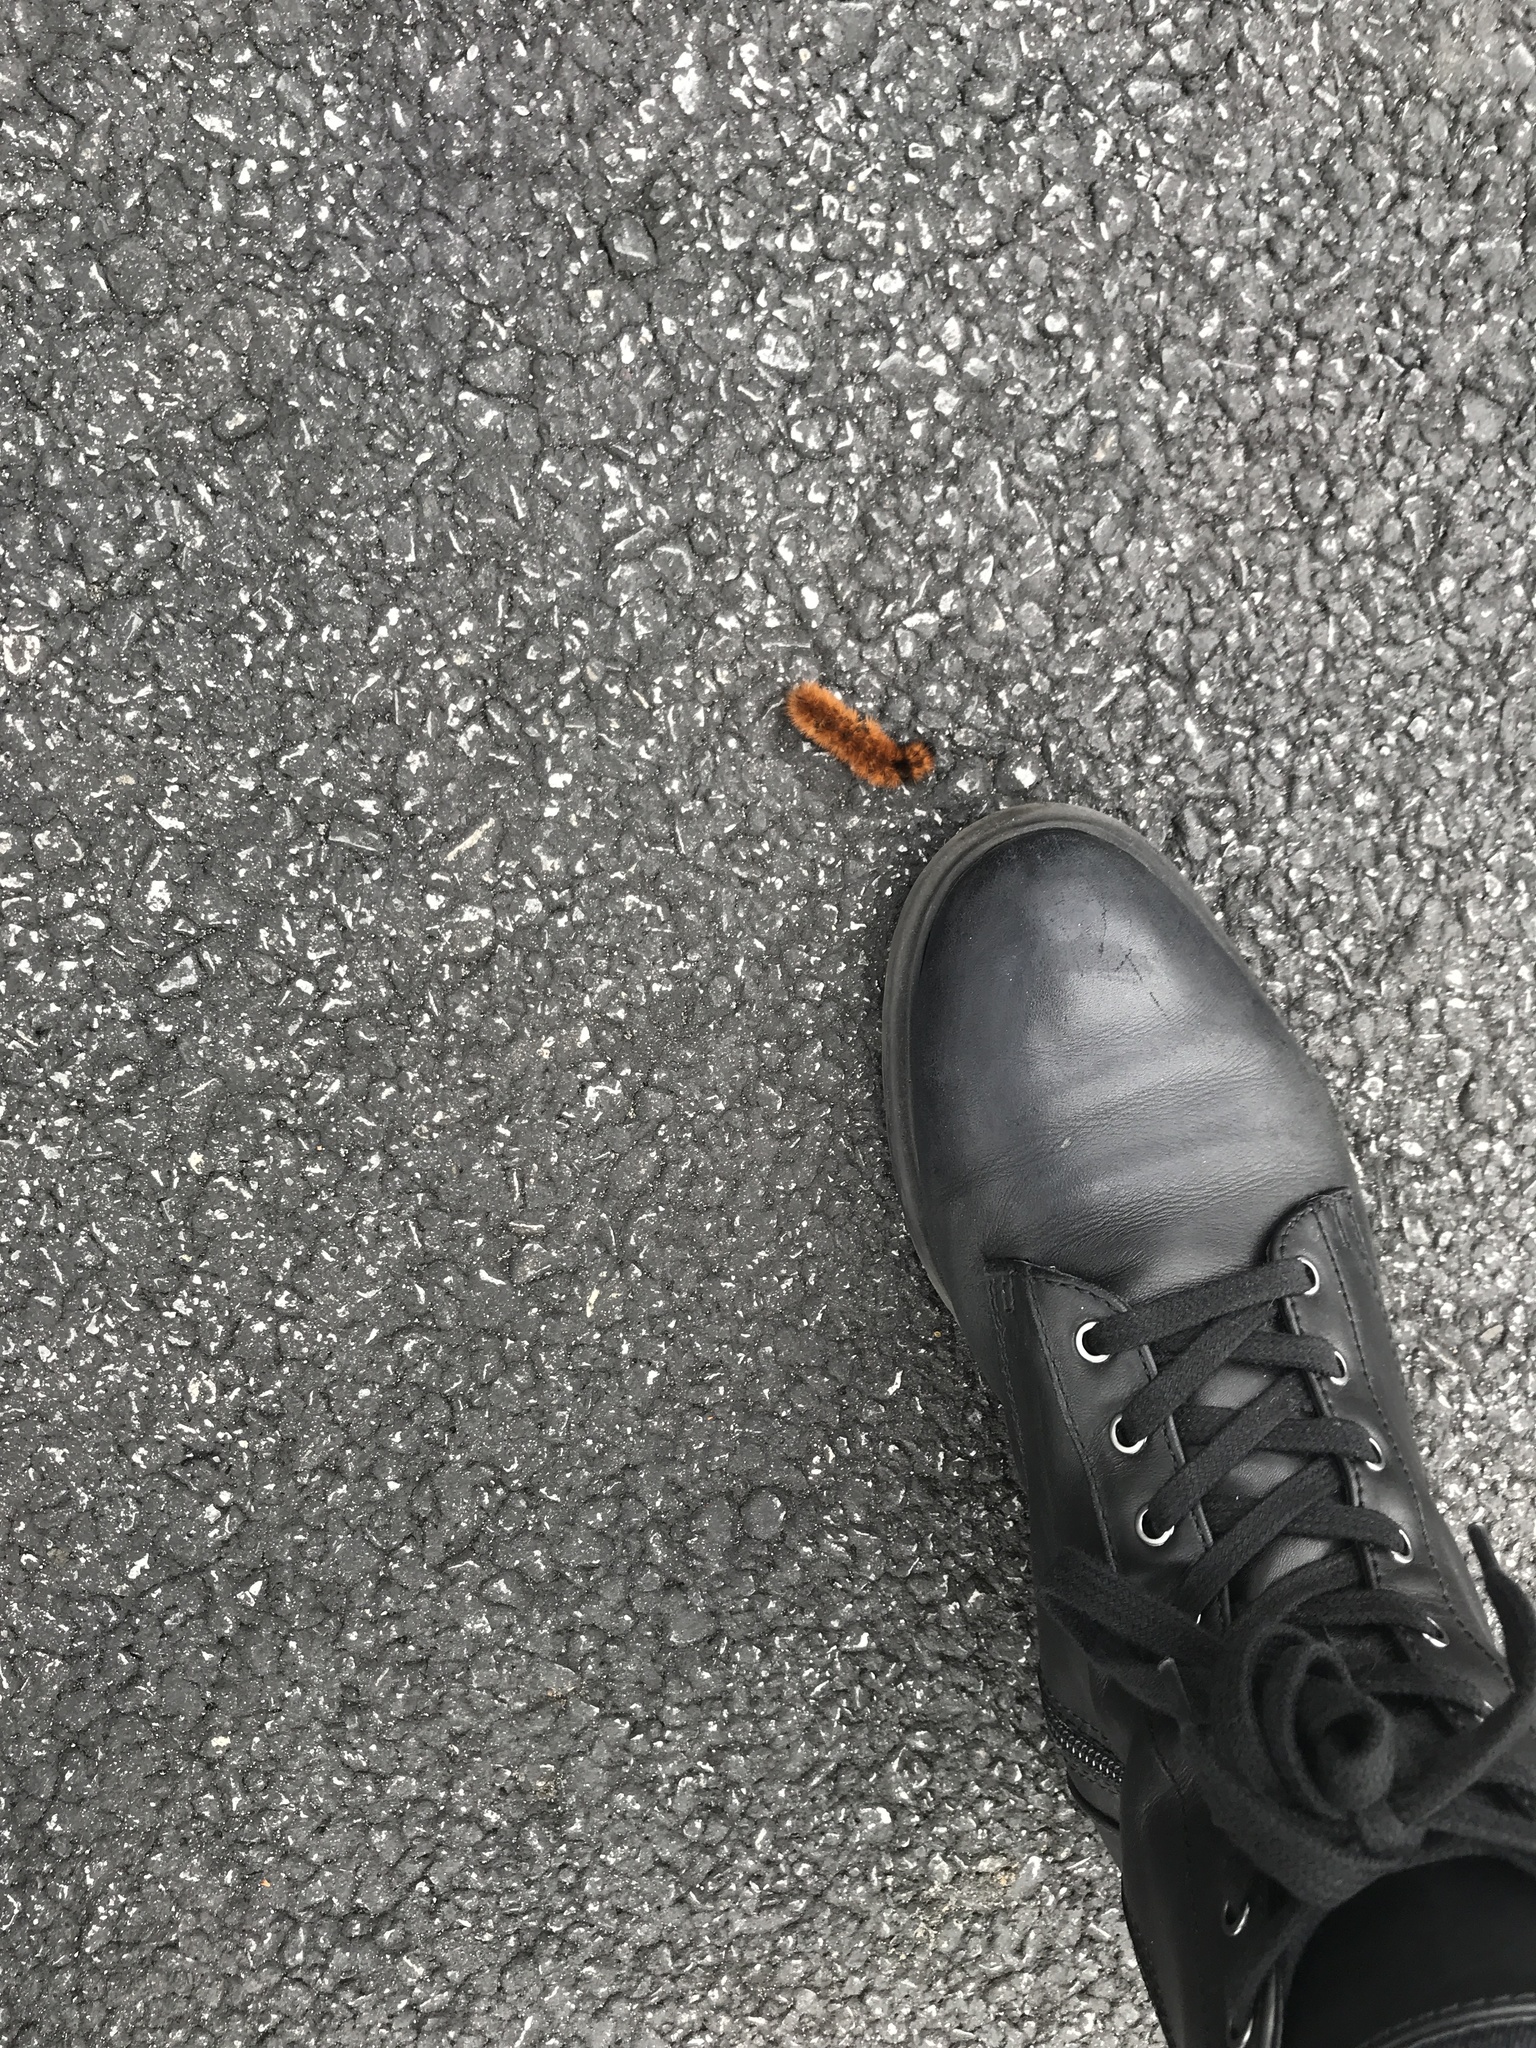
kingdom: Animalia
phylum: Arthropoda
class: Insecta
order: Lepidoptera
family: Erebidae
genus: Pyrrharctia
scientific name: Pyrrharctia isabella
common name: Isabella tiger moth
